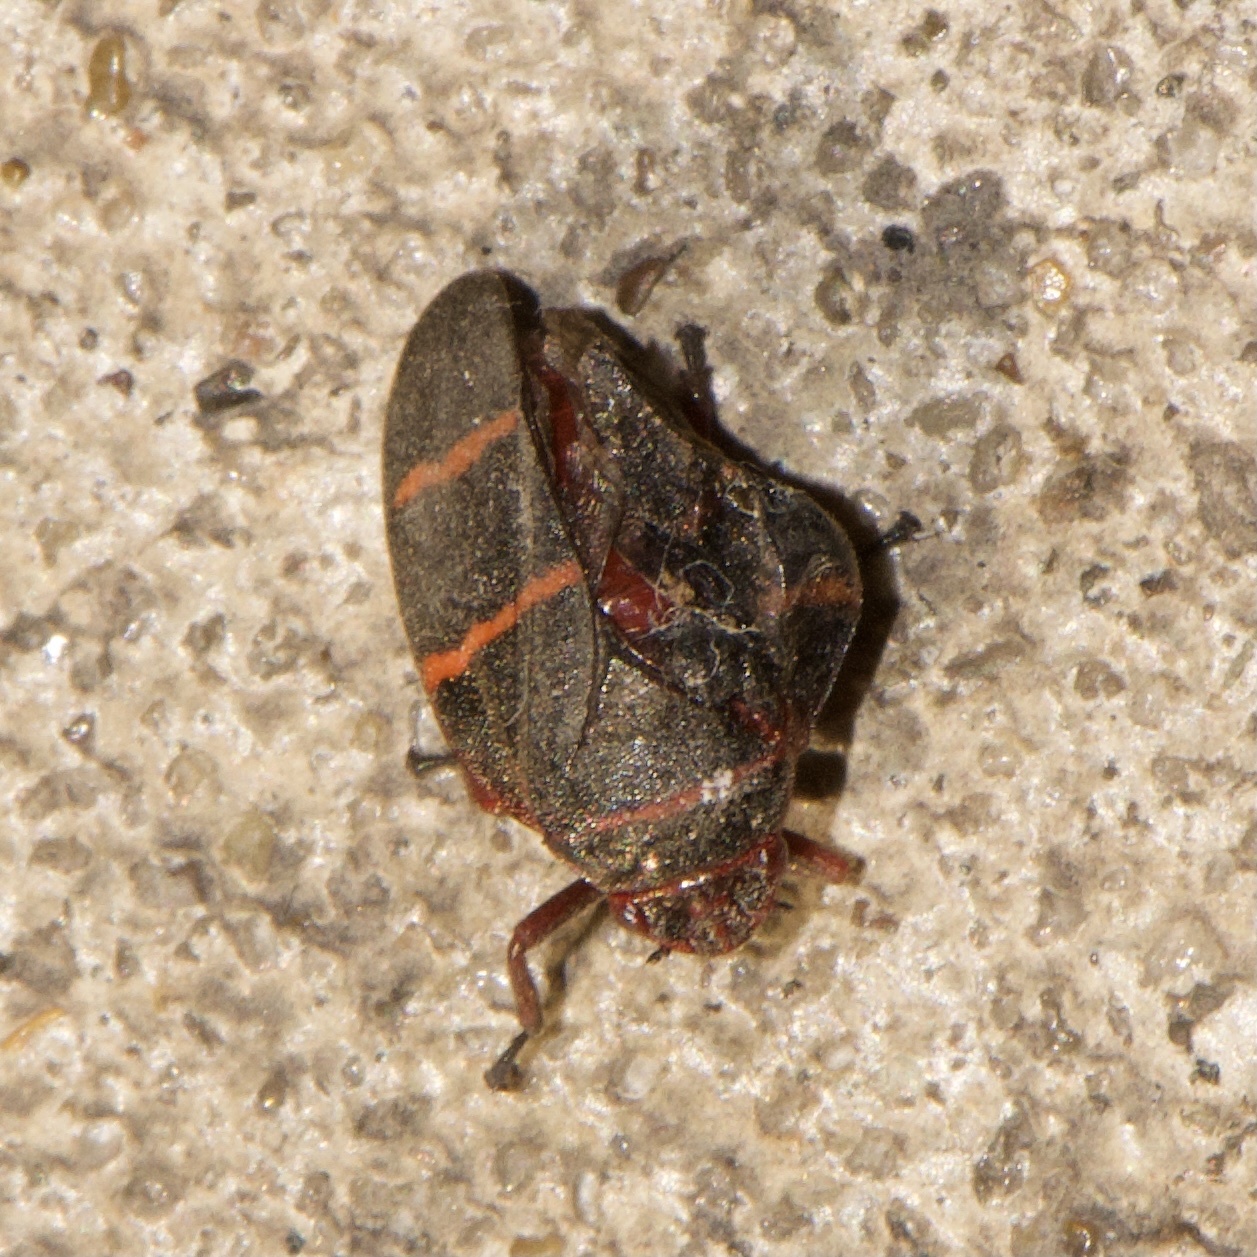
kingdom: Animalia
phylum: Arthropoda
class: Insecta
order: Hemiptera
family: Cercopidae
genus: Prosapia
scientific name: Prosapia bicincta
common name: Twolined spittlebug
